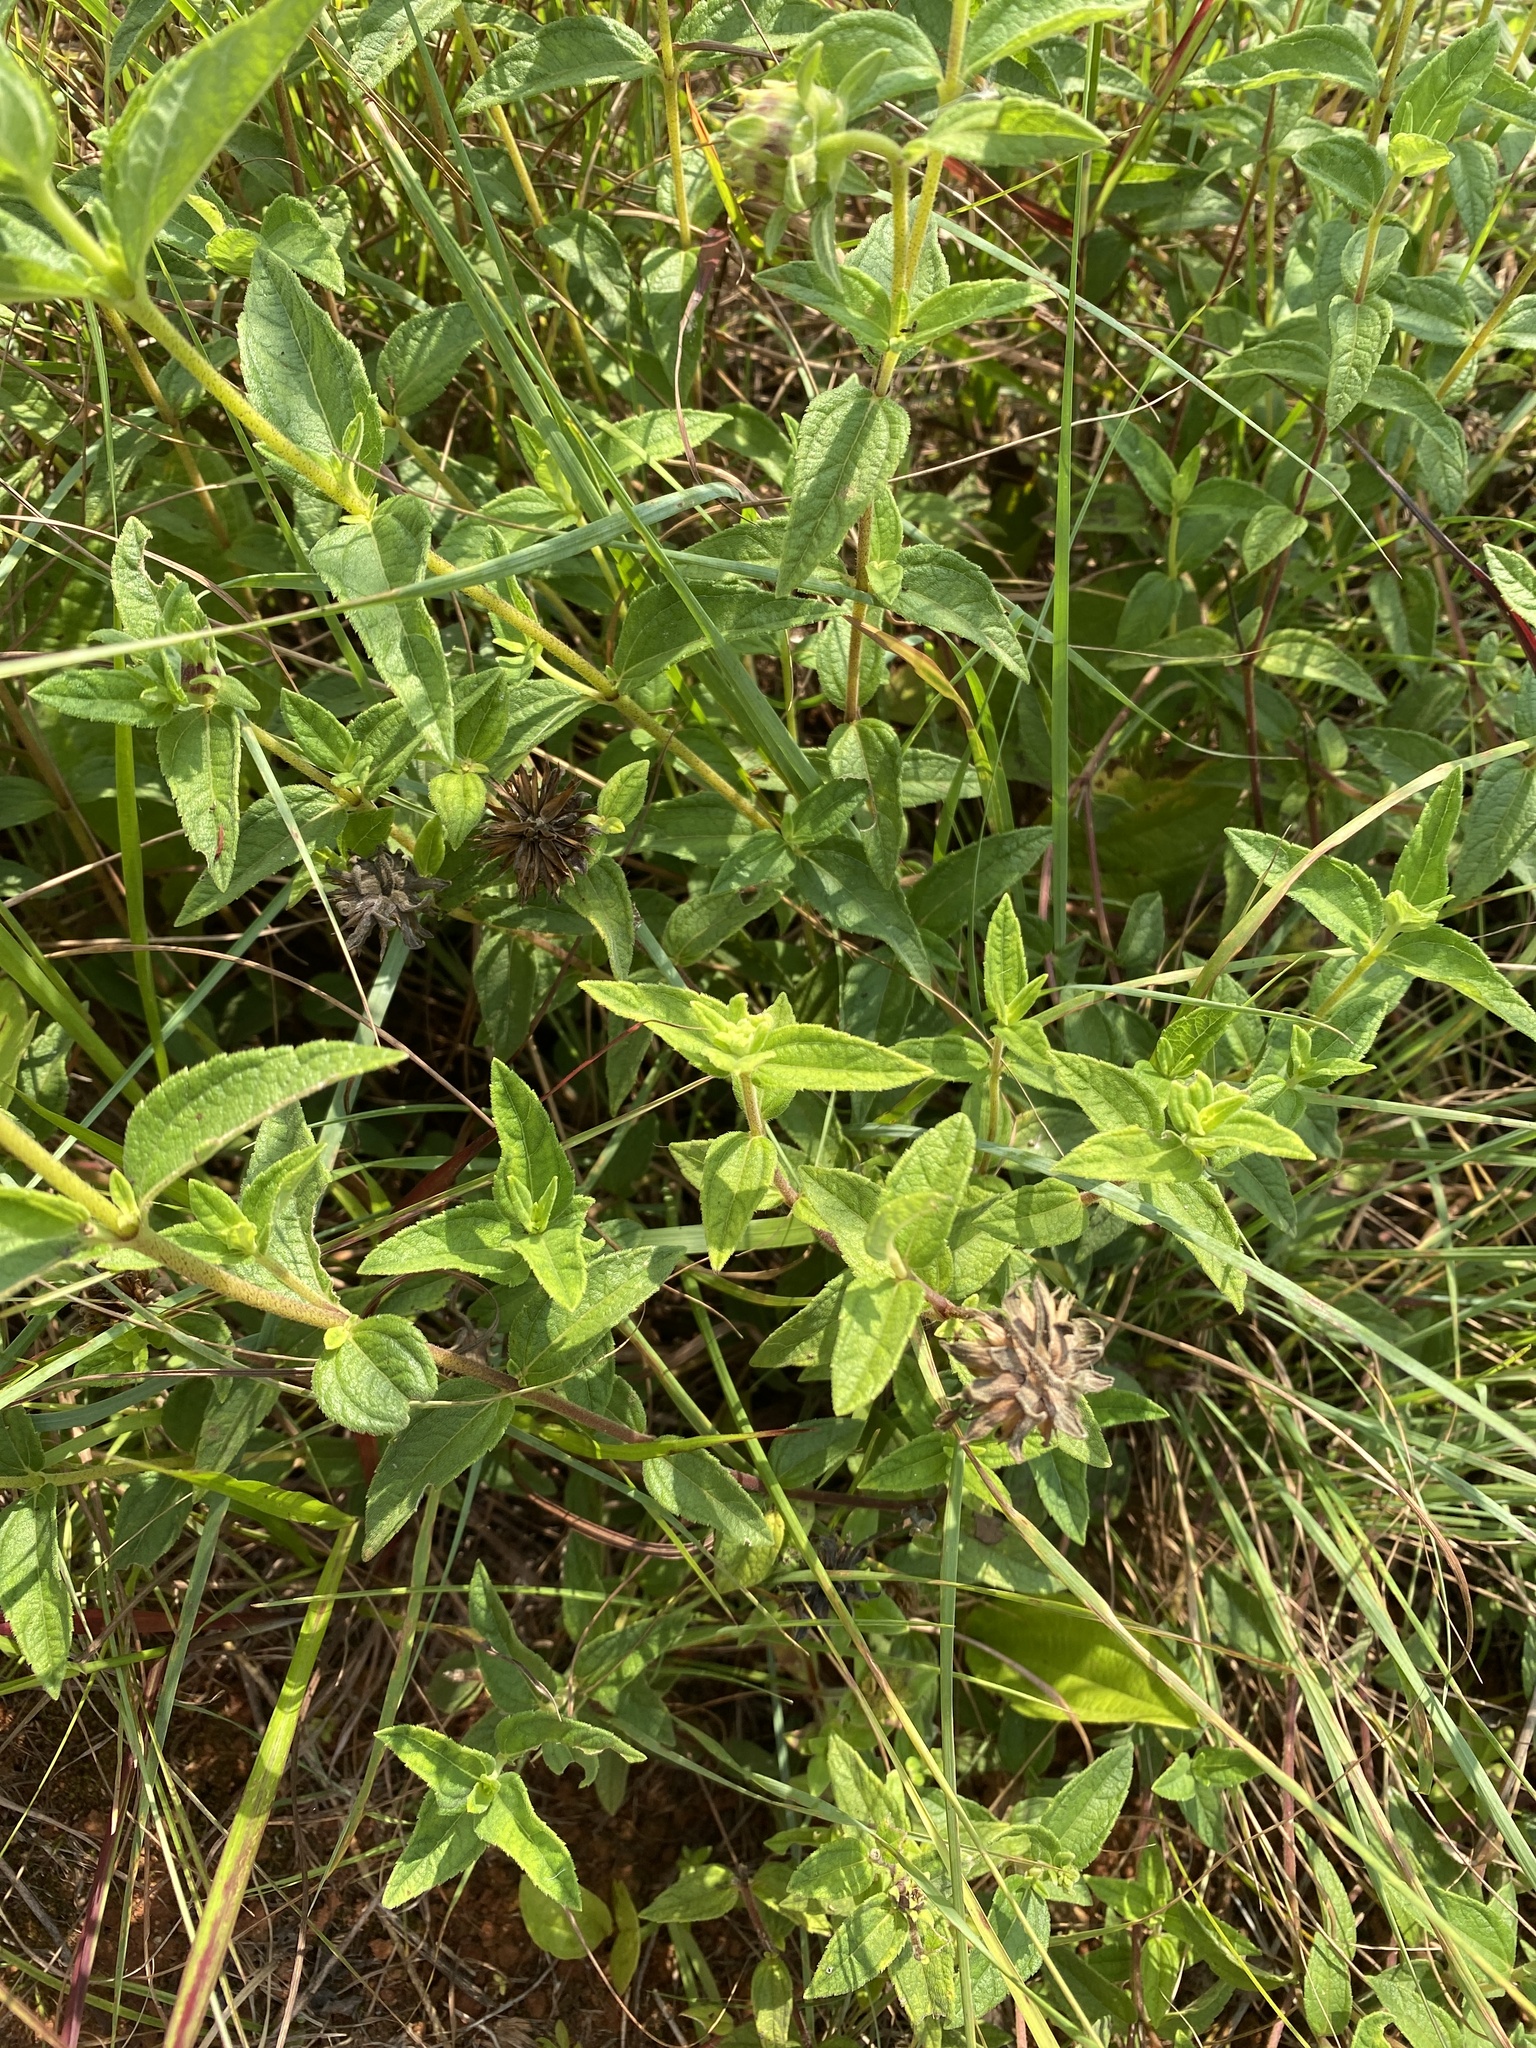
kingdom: Plantae
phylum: Tracheophyta
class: Magnoliopsida
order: Asterales
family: Asteraceae
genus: Aspilia
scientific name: Aspilia pluriseta
